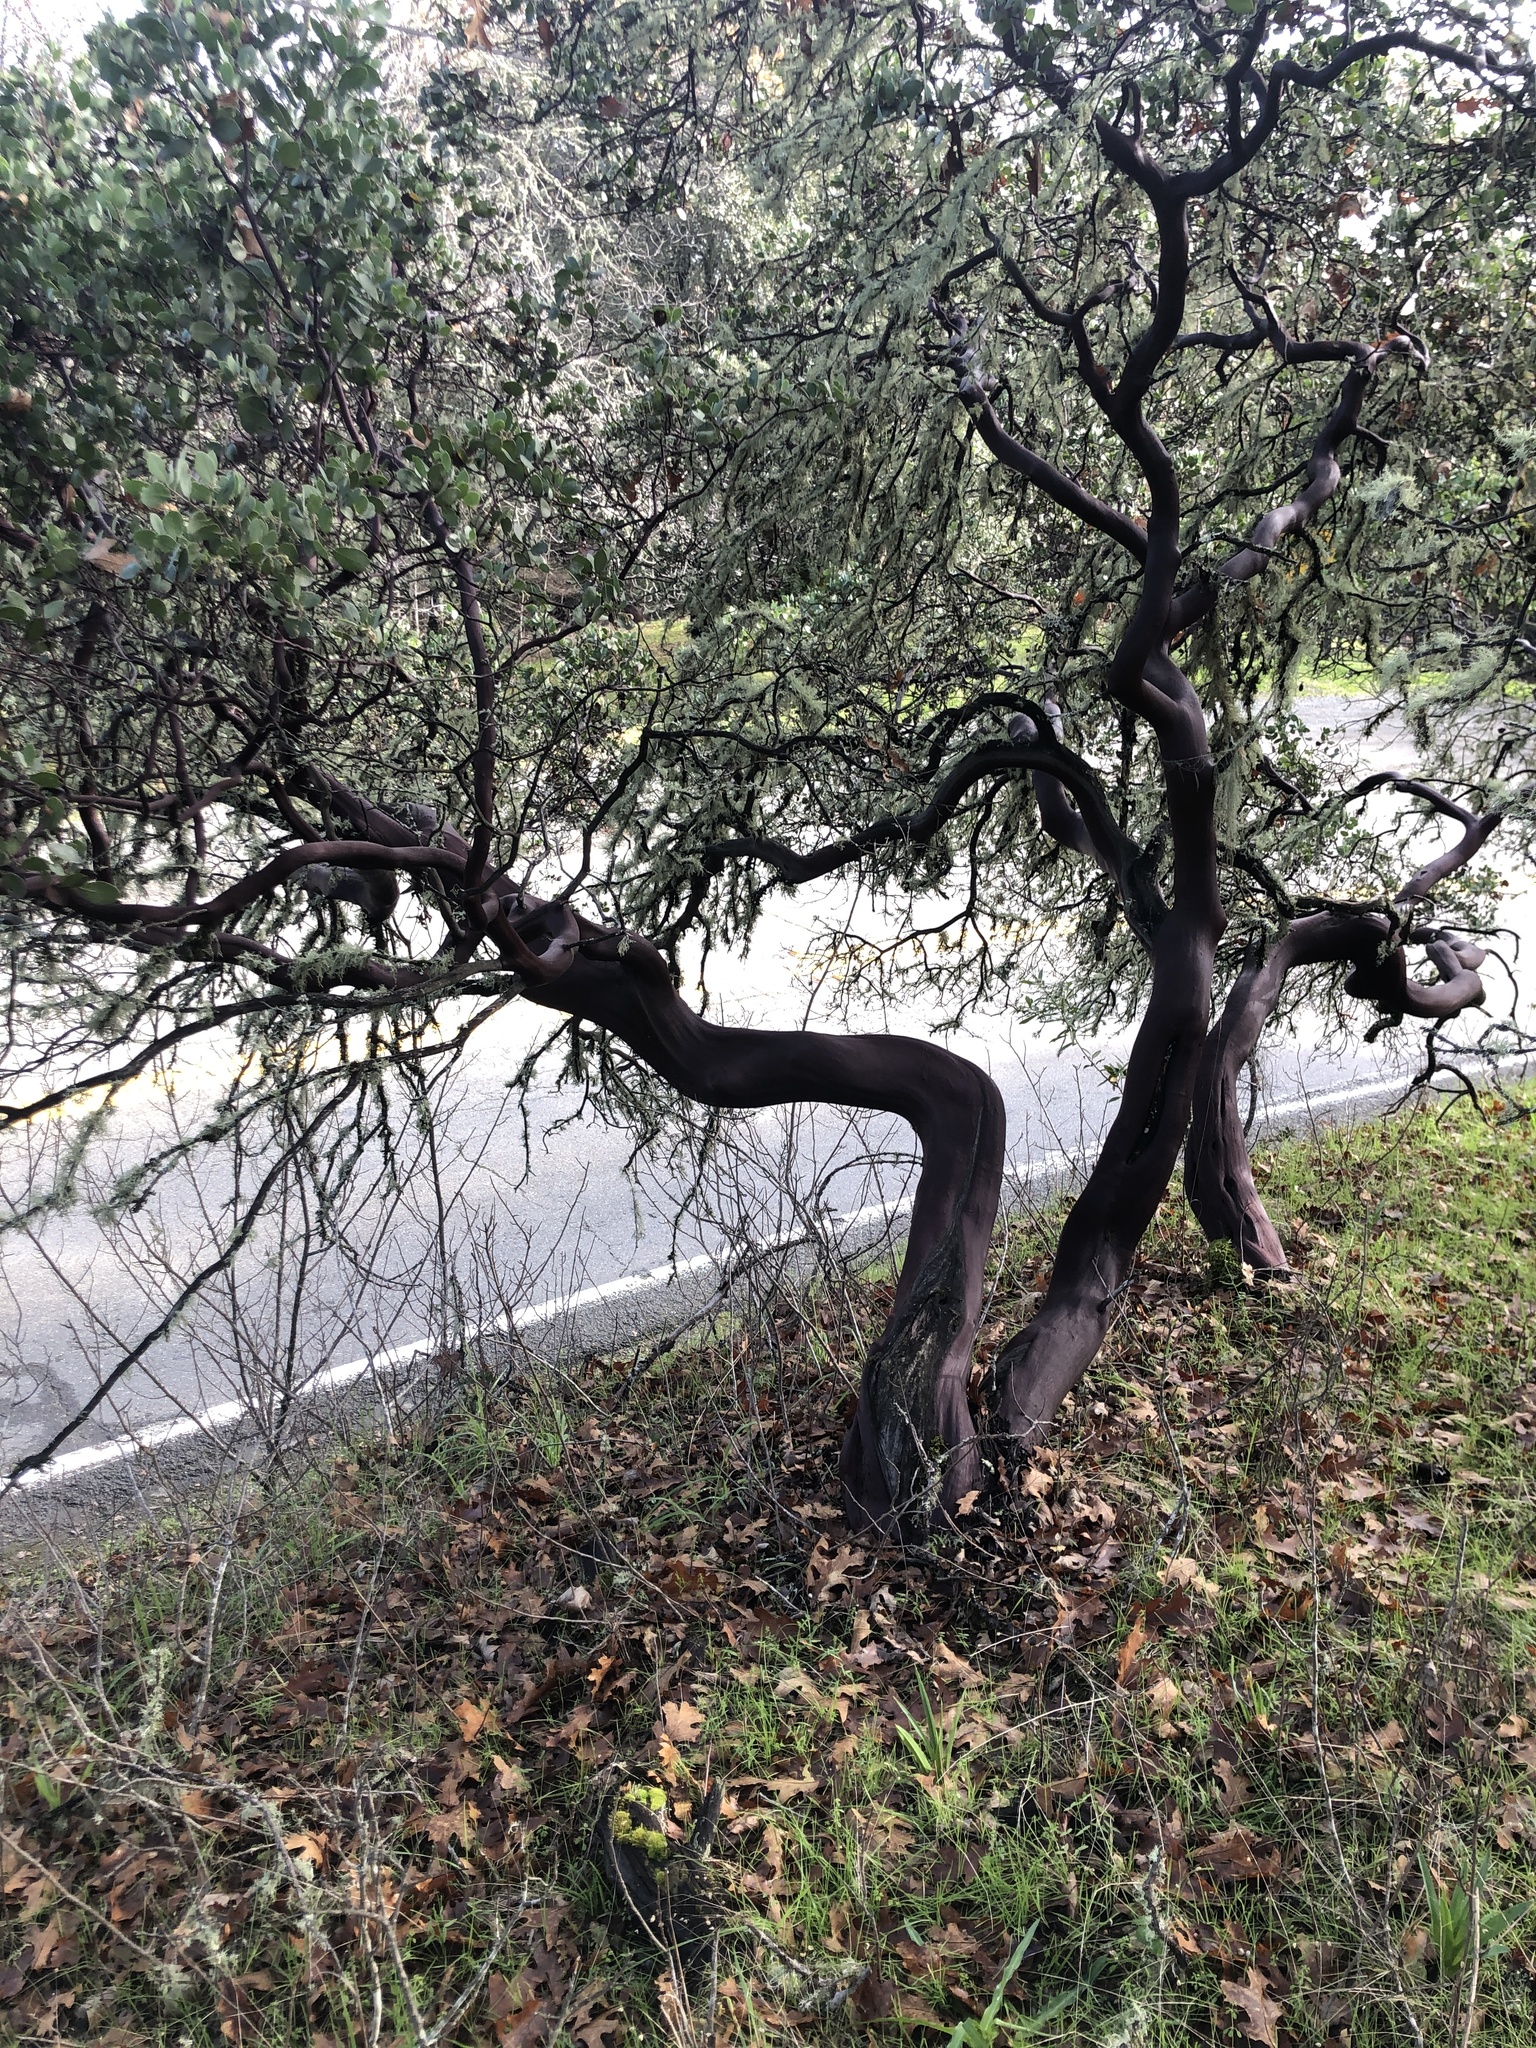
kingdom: Plantae
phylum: Tracheophyta
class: Magnoliopsida
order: Ericales
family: Ericaceae
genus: Arctostaphylos
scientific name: Arctostaphylos manzanita
